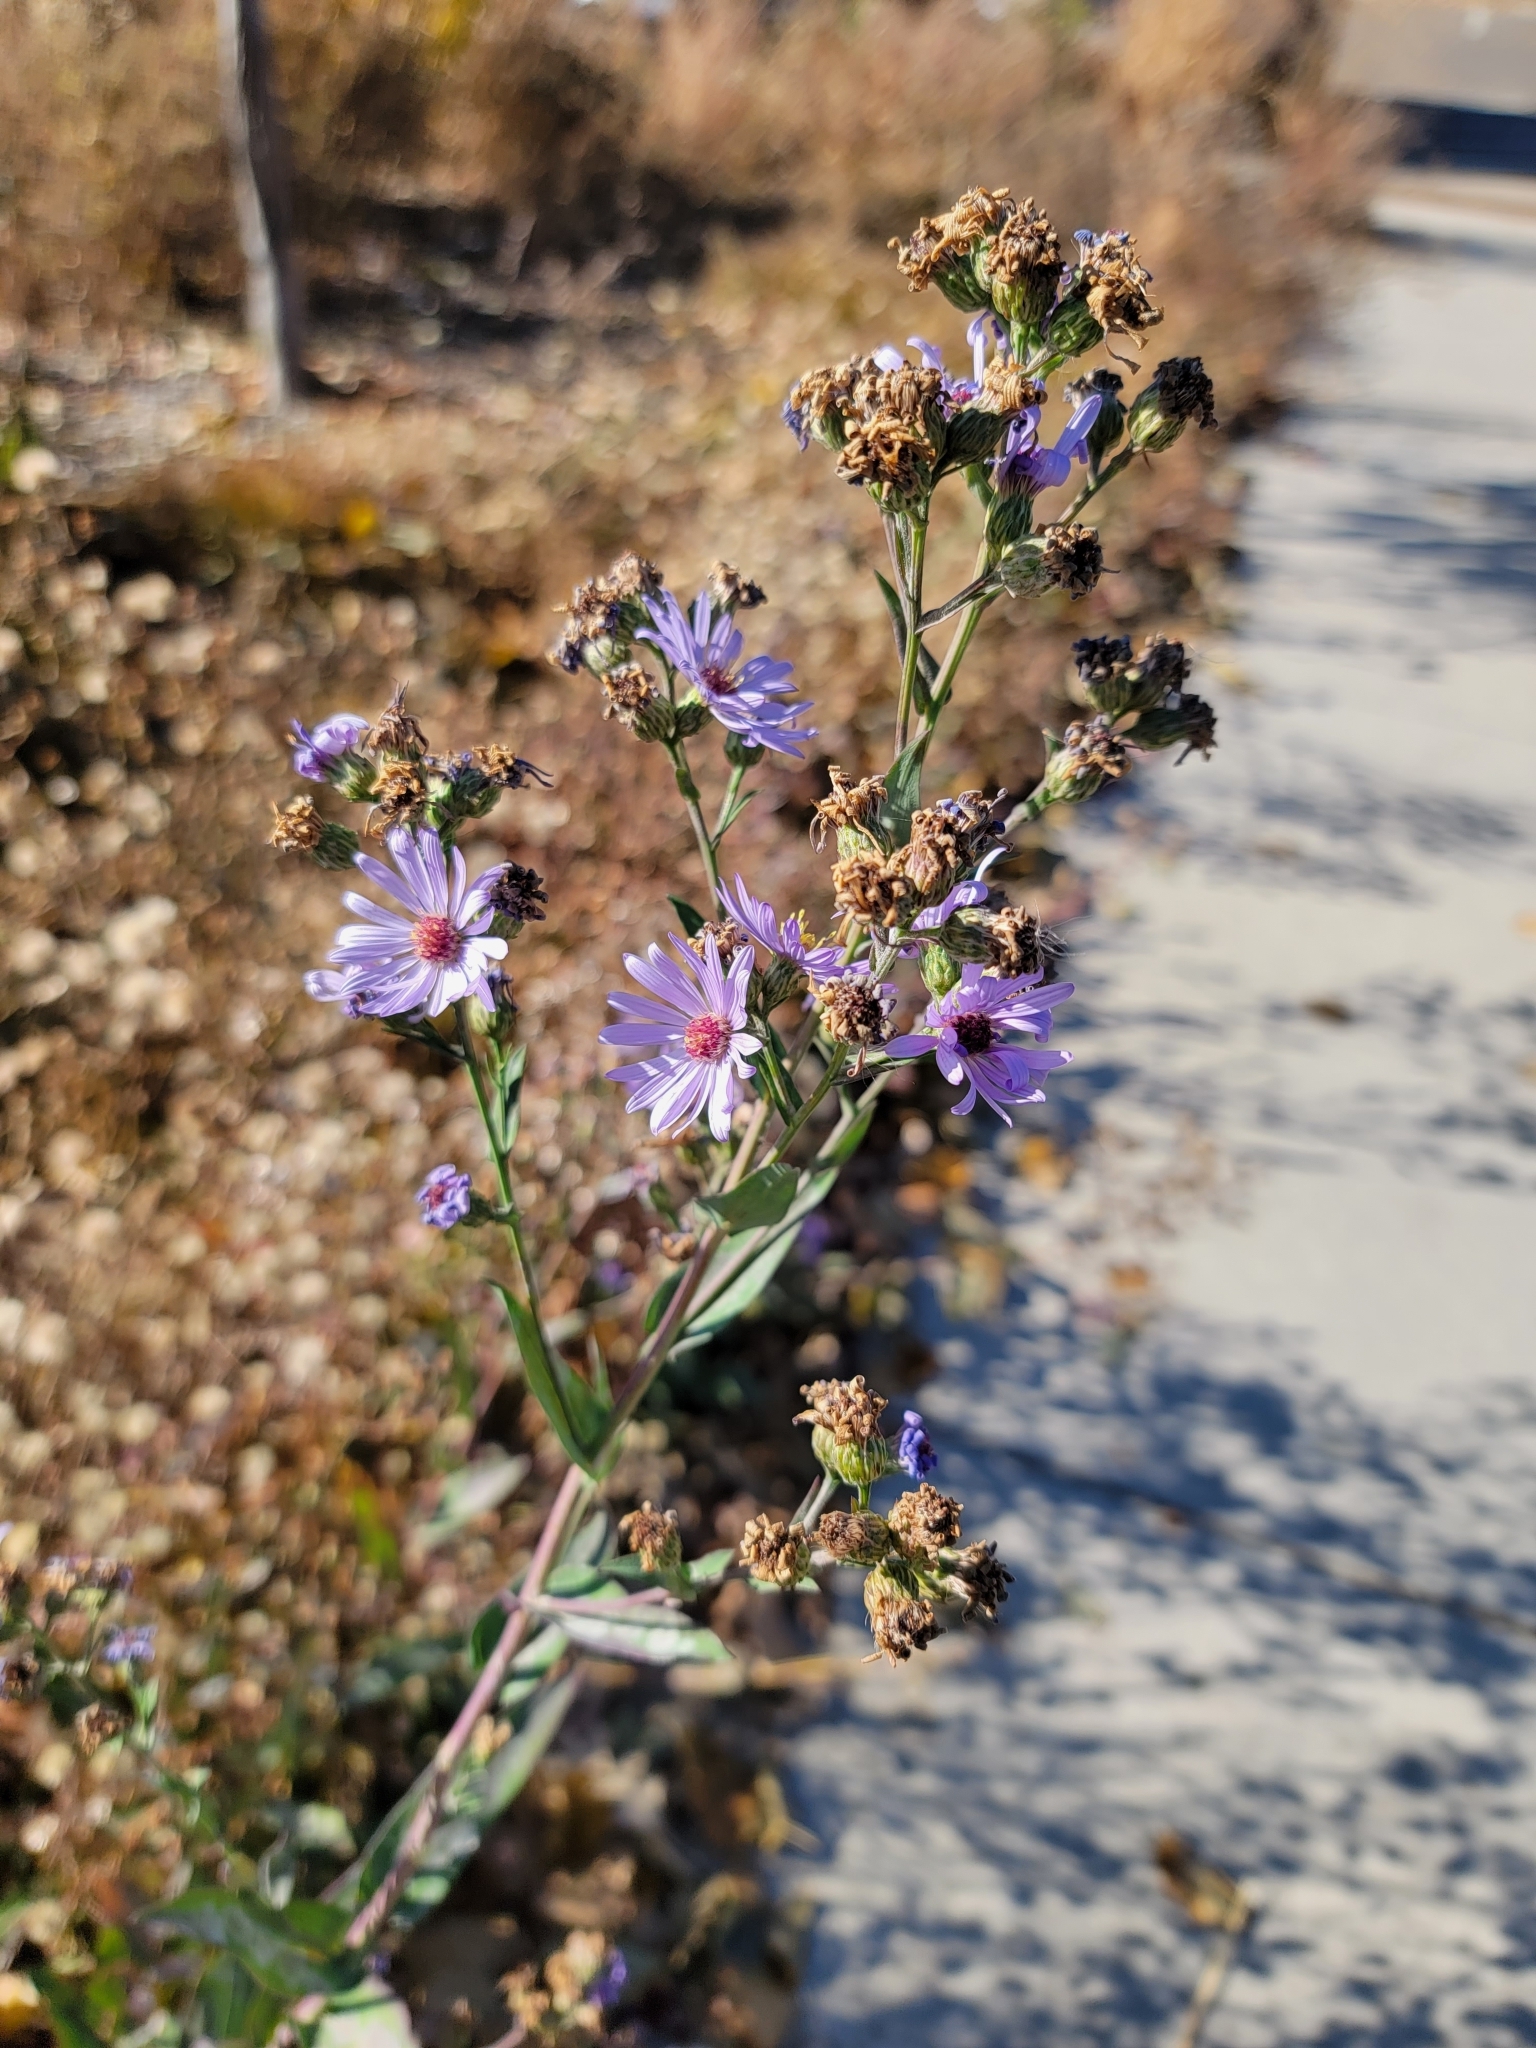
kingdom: Plantae
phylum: Tracheophyta
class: Magnoliopsida
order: Asterales
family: Asteraceae
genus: Symphyotrichum
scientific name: Symphyotrichum laeve
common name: Glaucous aster
